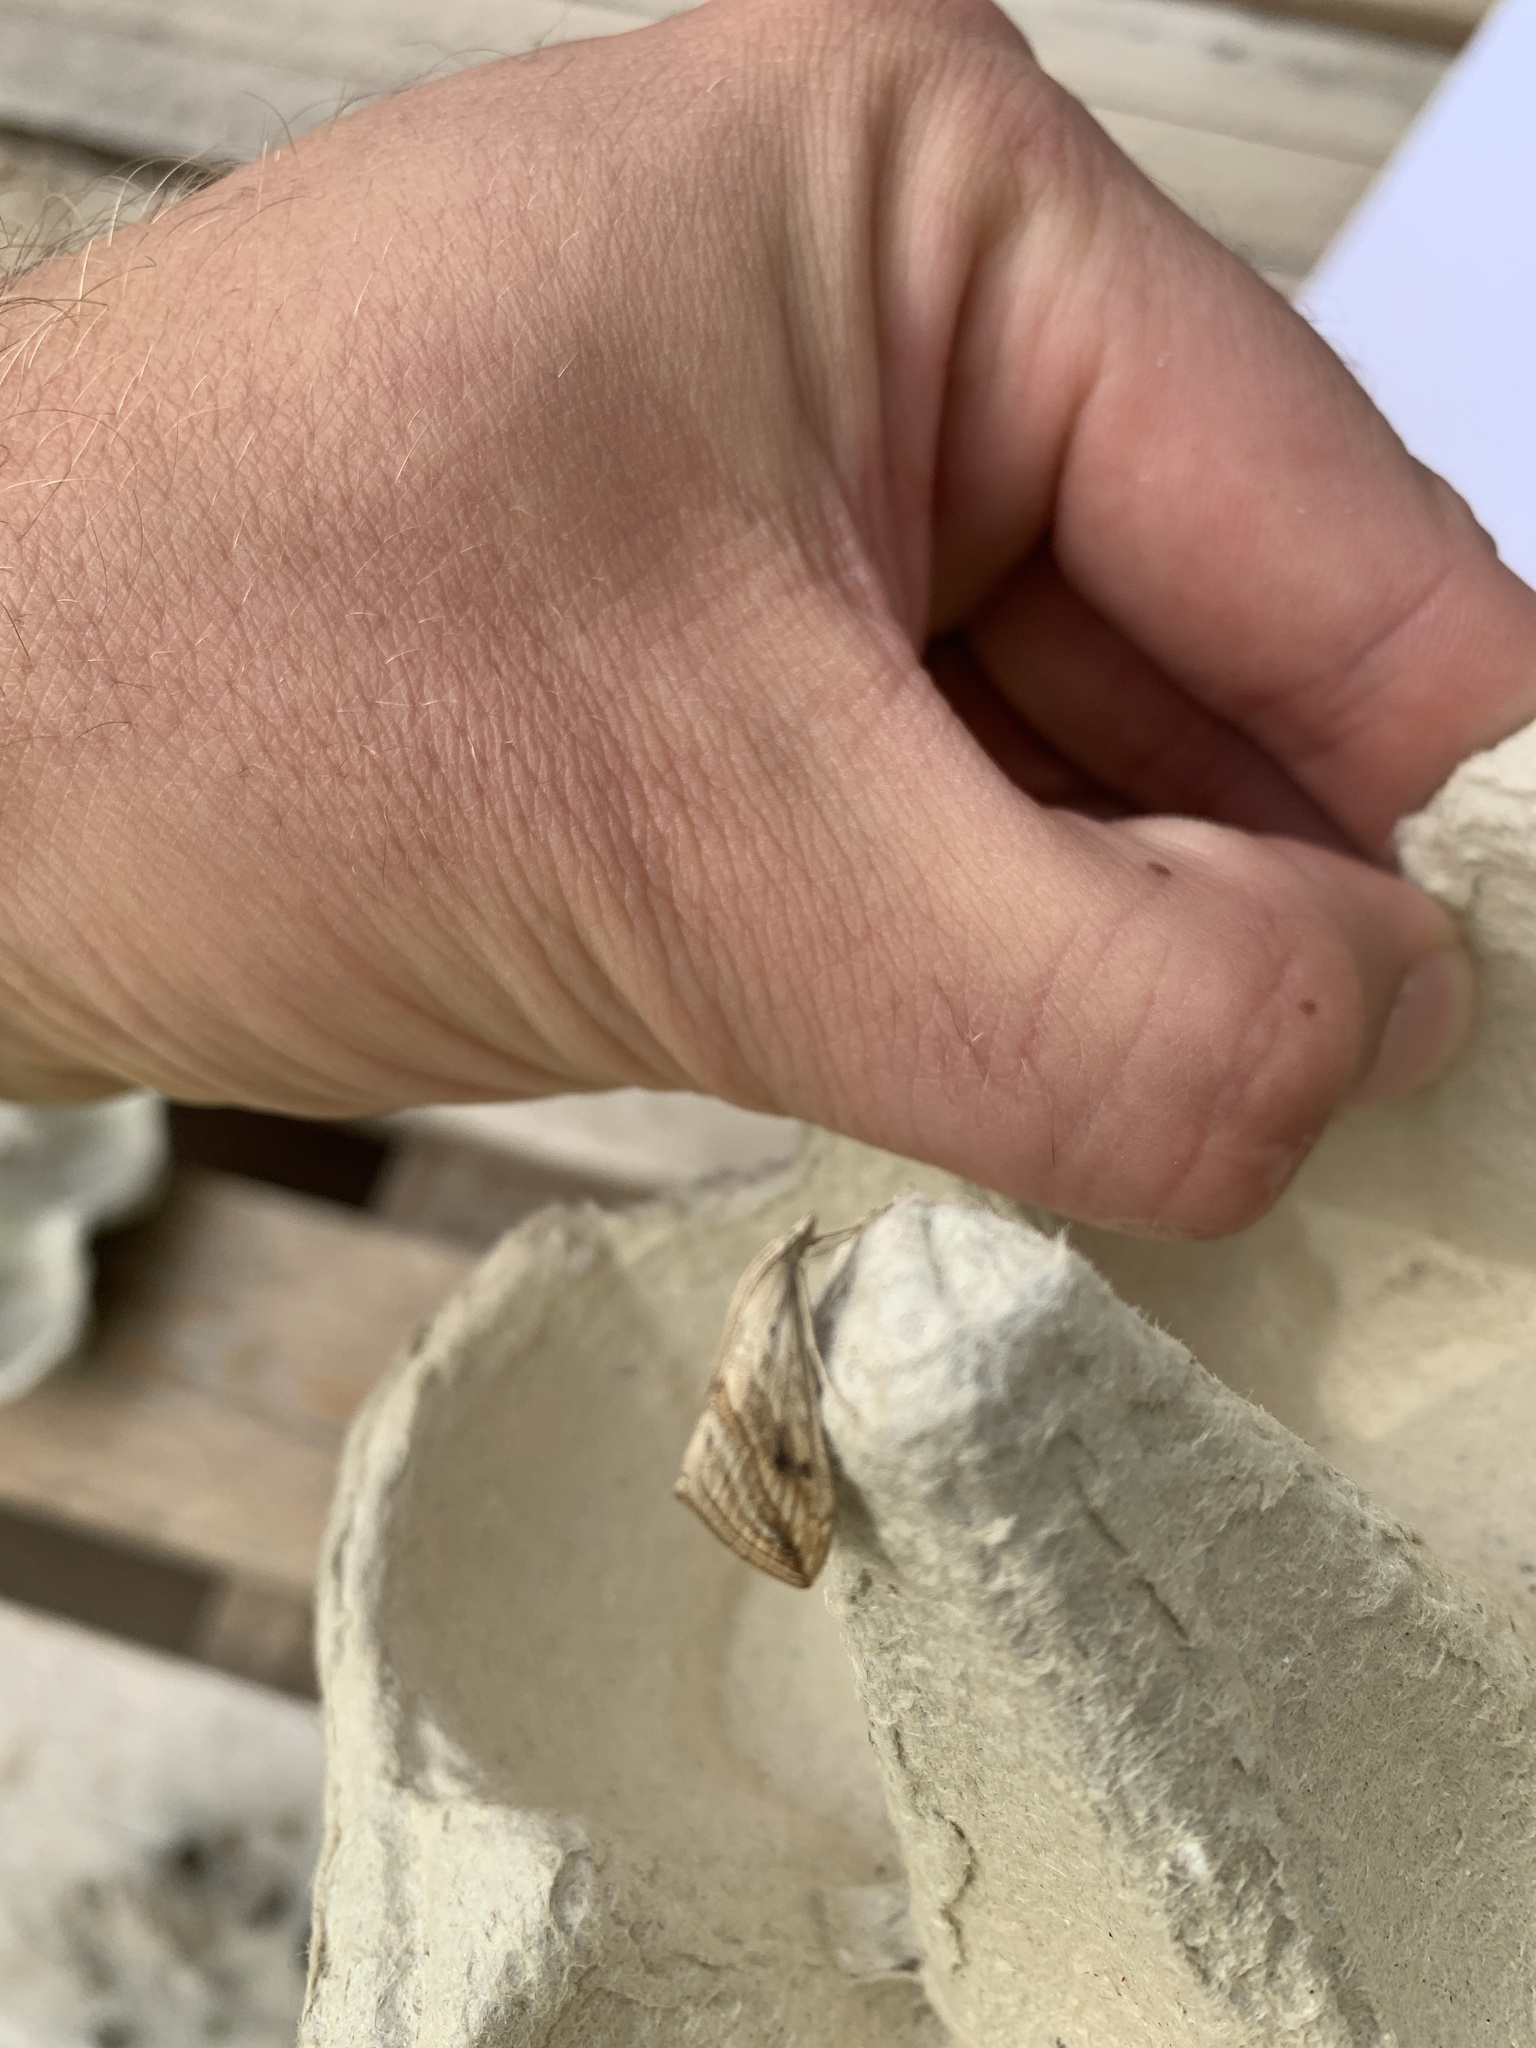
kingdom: Animalia
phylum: Arthropoda
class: Insecta
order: Lepidoptera
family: Crambidae
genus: Evergestis
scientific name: Evergestis forficalis
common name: Garden pebble
